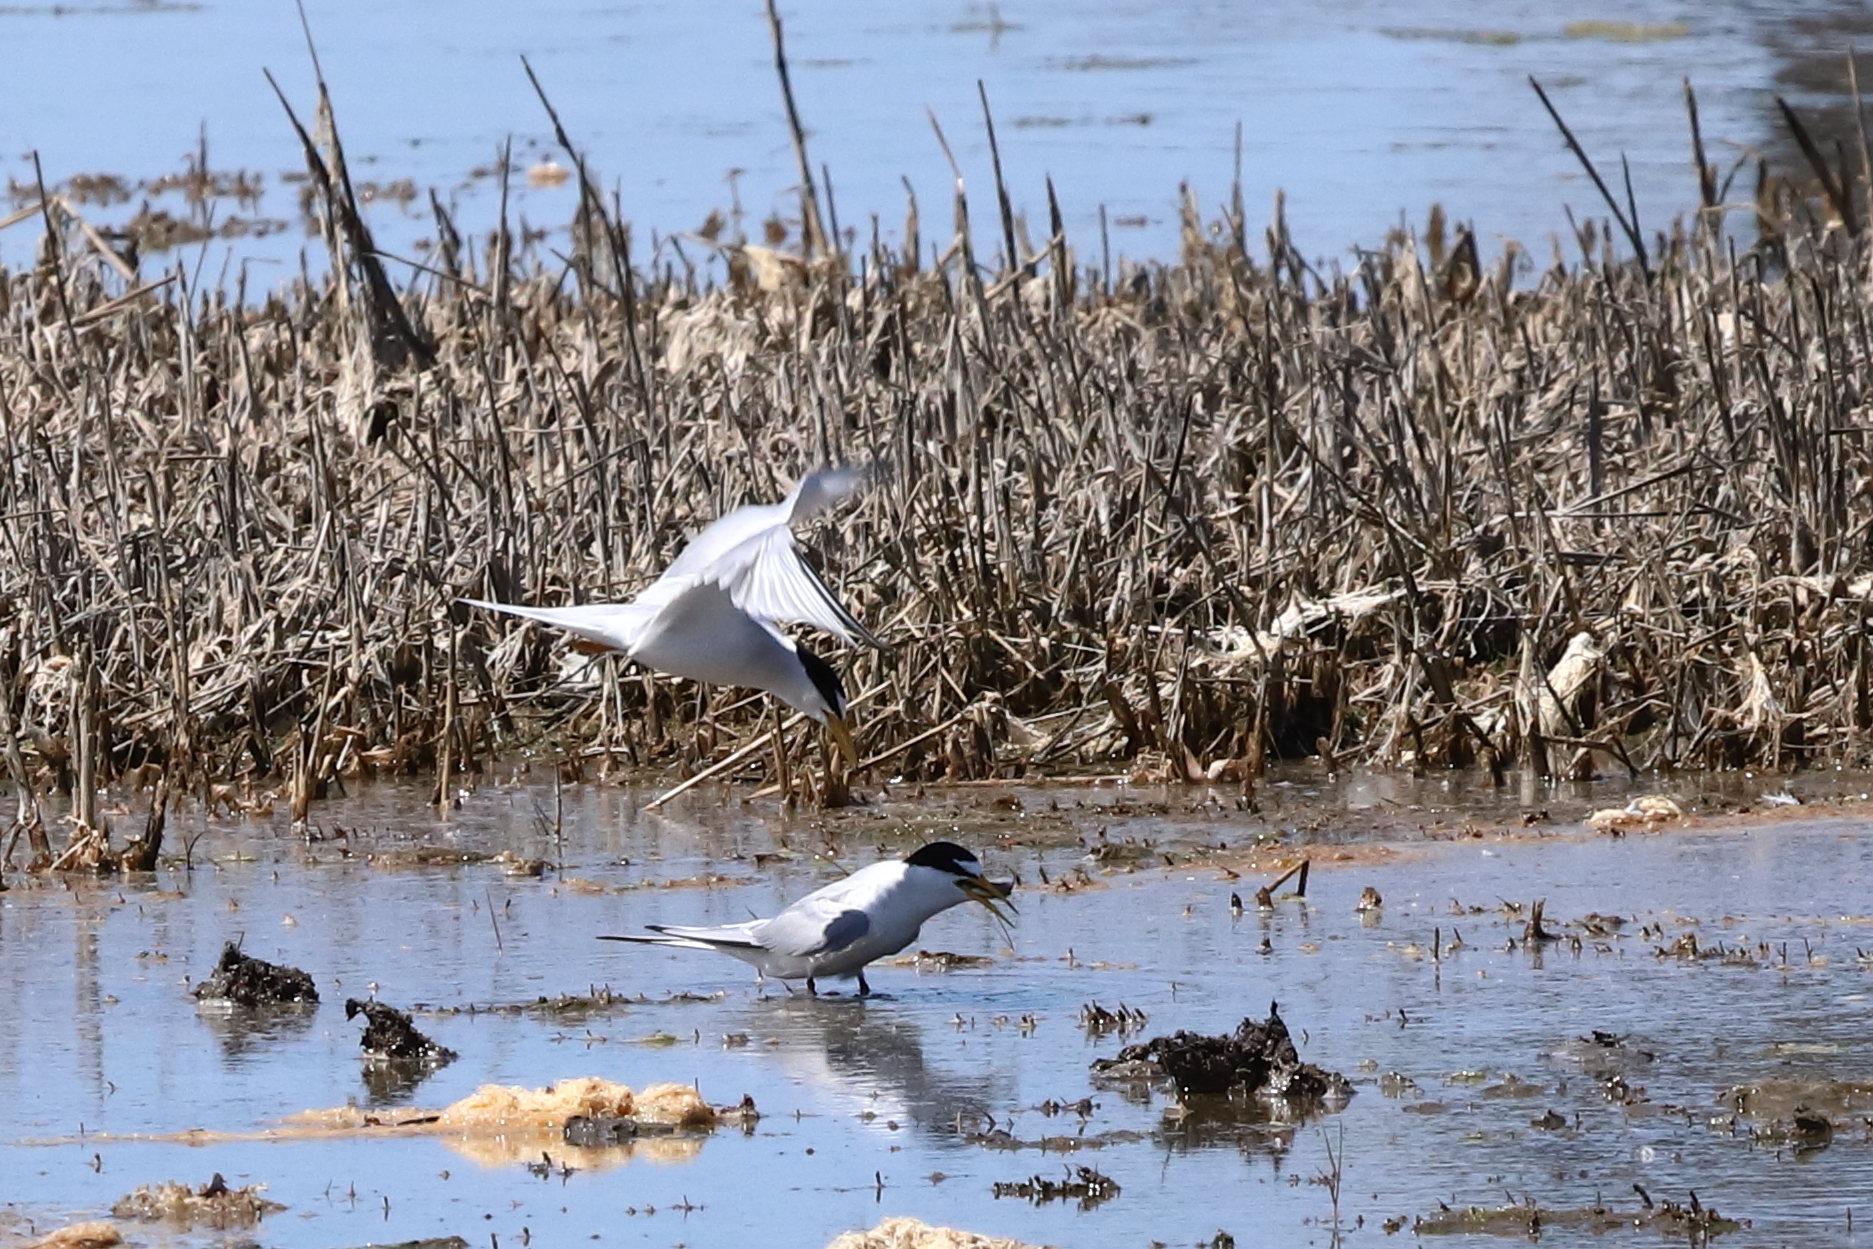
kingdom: Animalia
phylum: Chordata
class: Aves
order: Charadriiformes
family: Laridae
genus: Sternula
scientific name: Sternula antillarum
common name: Least tern
